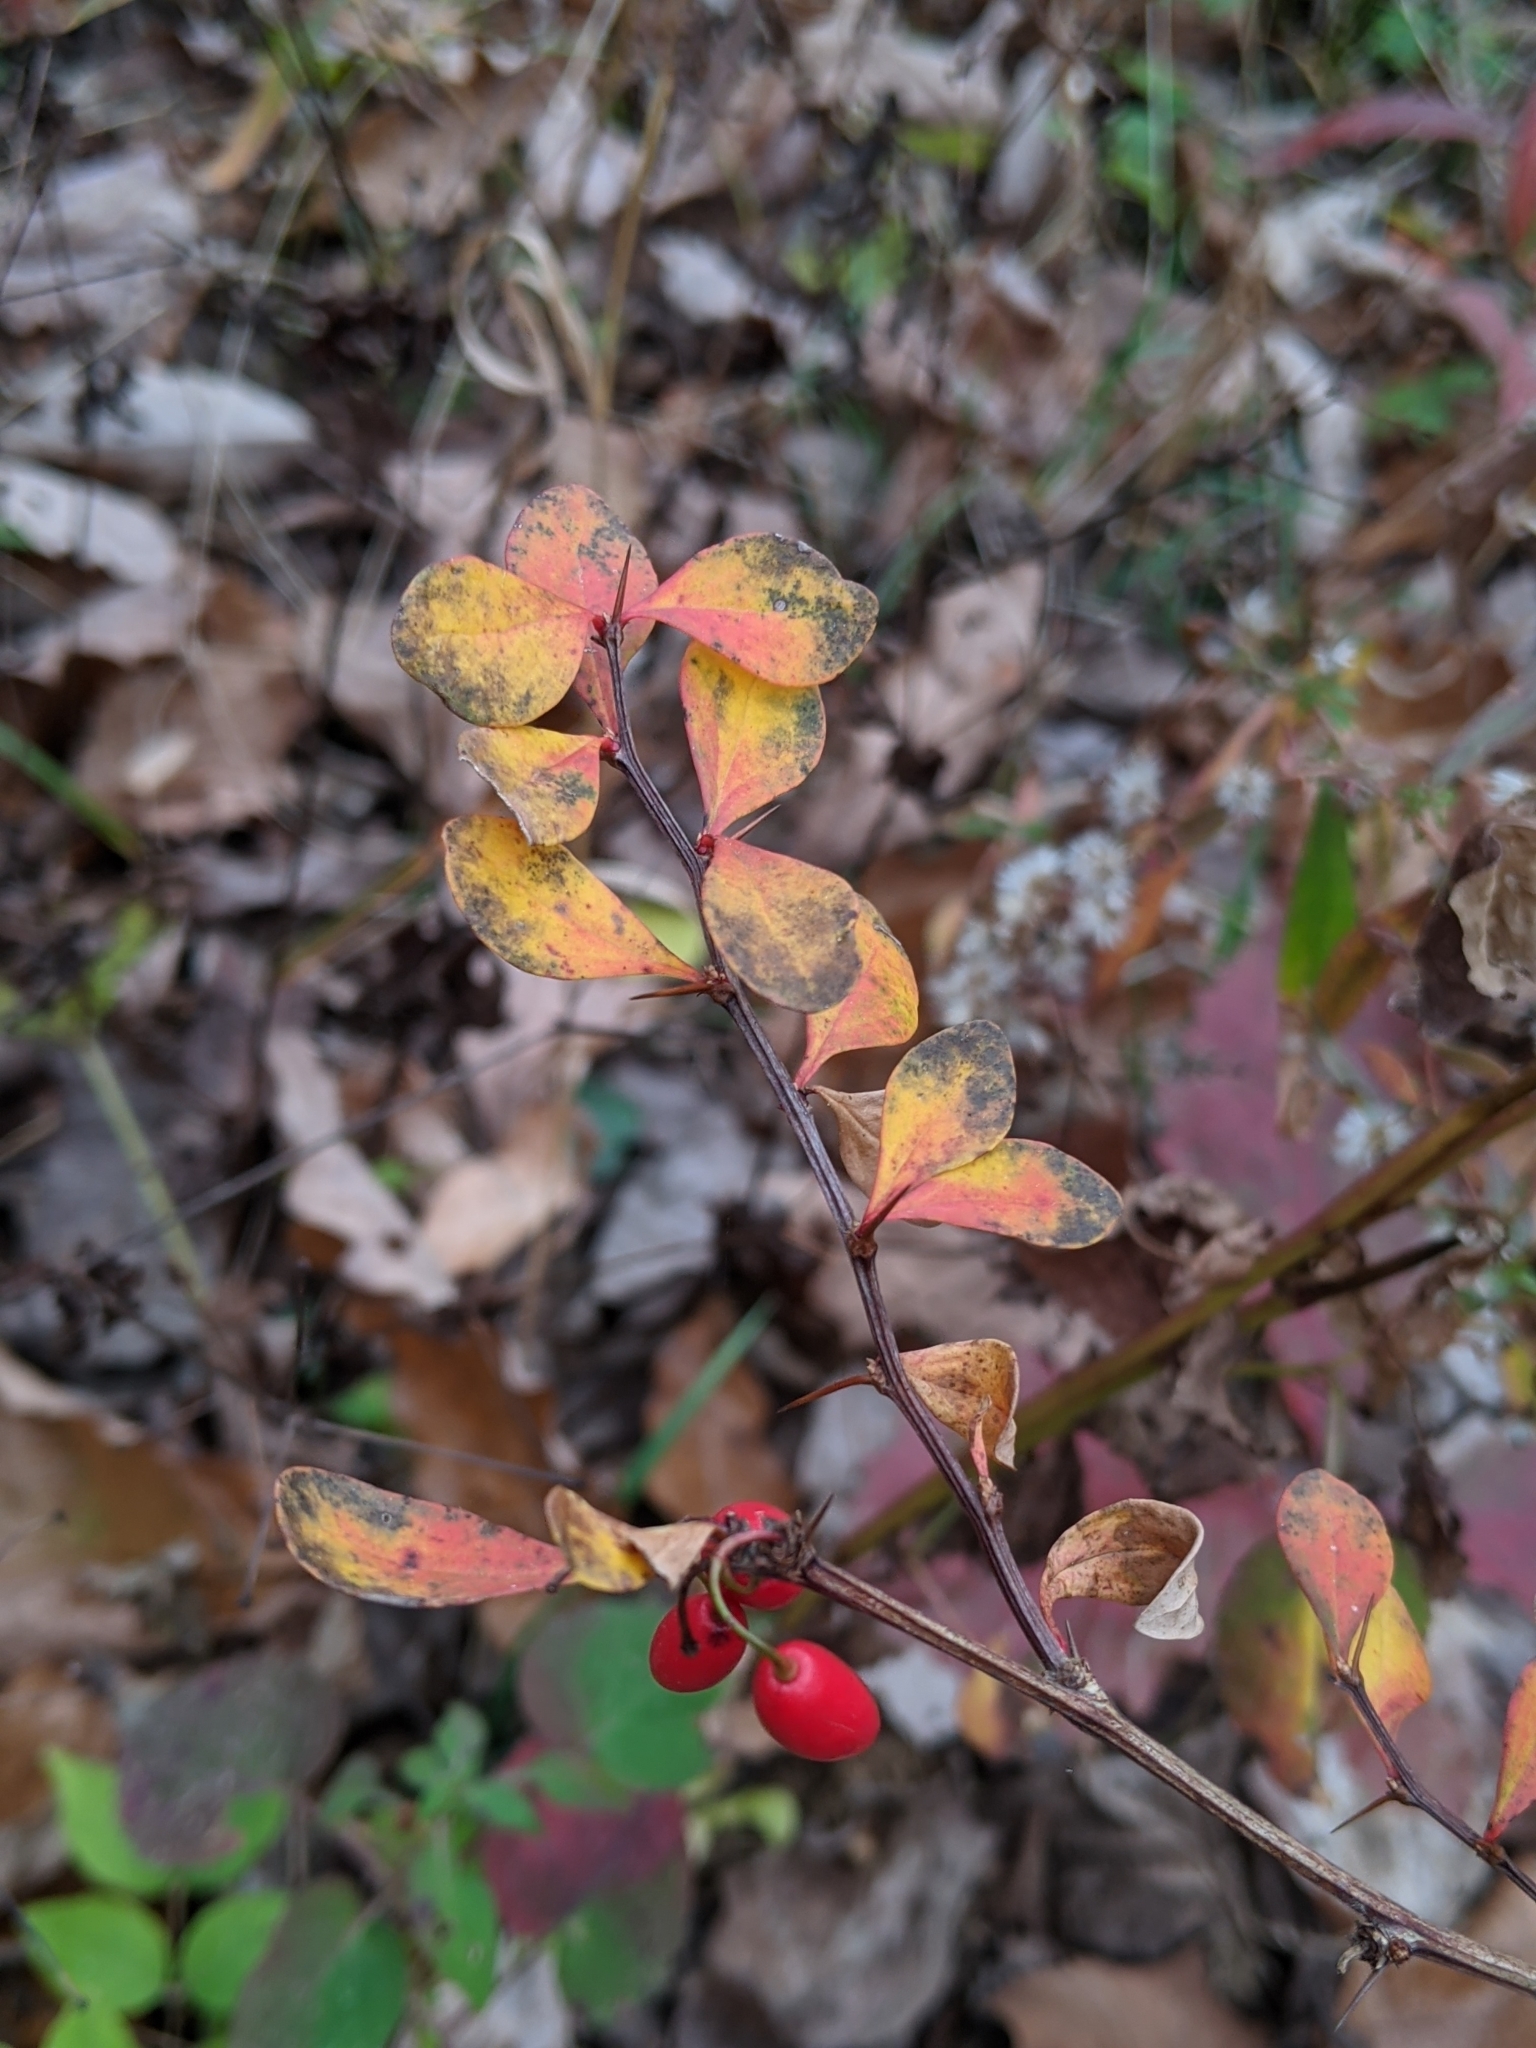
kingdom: Plantae
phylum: Tracheophyta
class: Magnoliopsida
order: Ranunculales
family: Berberidaceae
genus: Berberis
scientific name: Berberis thunbergii
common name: Japanese barberry
